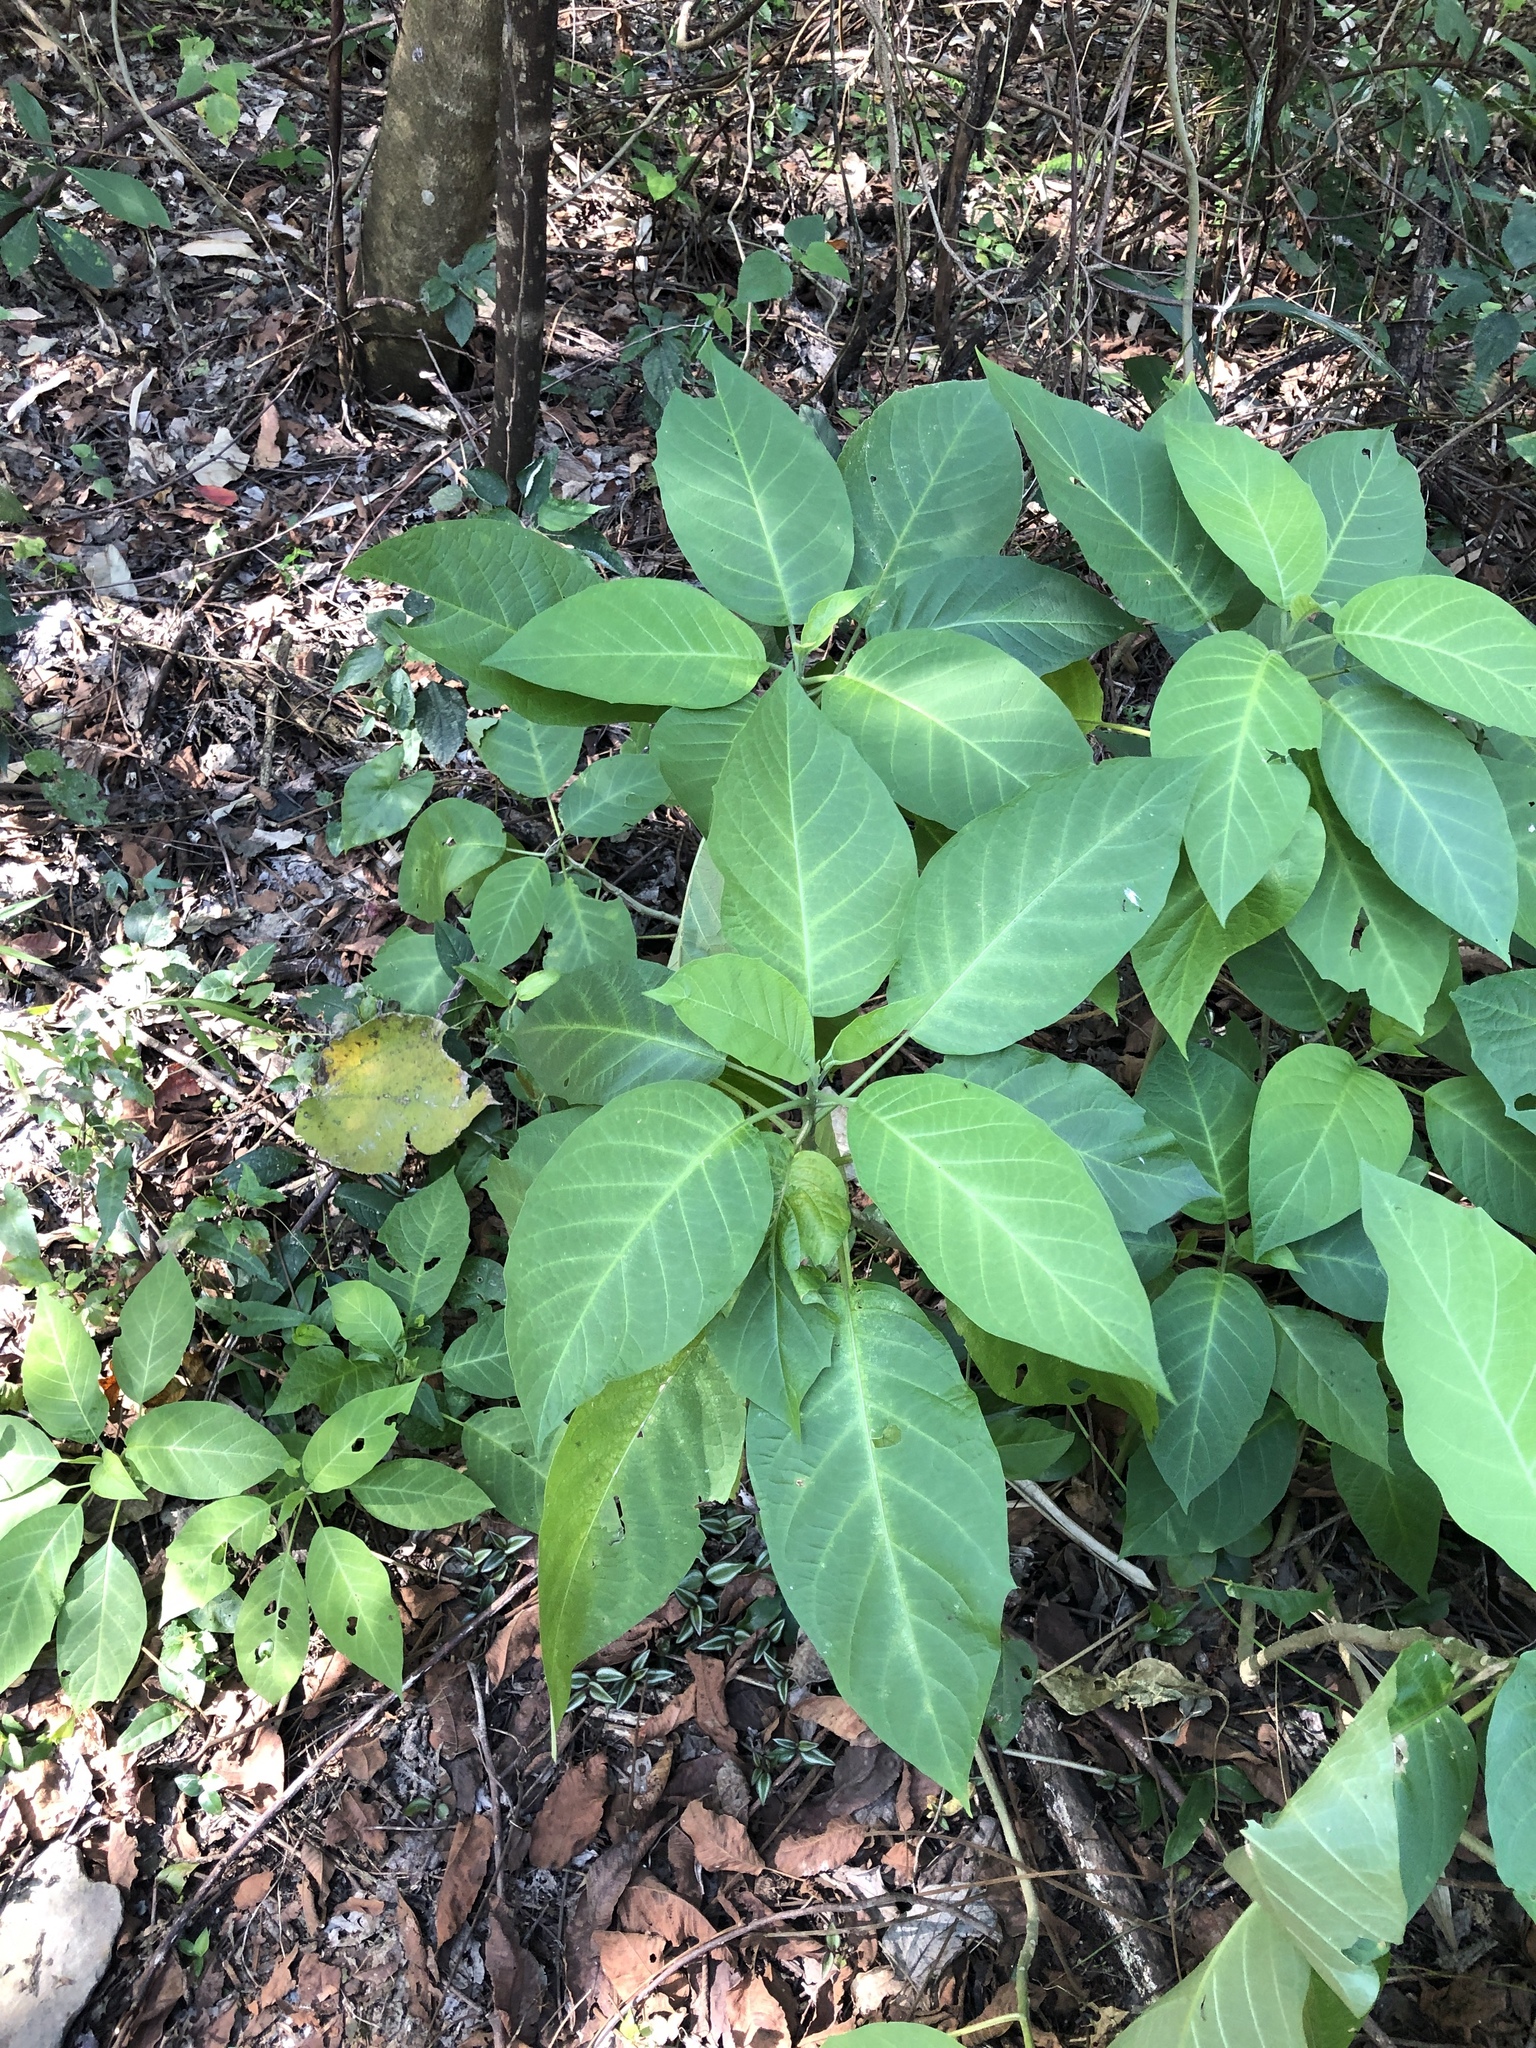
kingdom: Plantae
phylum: Tracheophyta
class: Magnoliopsida
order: Rosales
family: Urticaceae
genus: Dendrocnide
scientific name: Dendrocnide meyeniana
